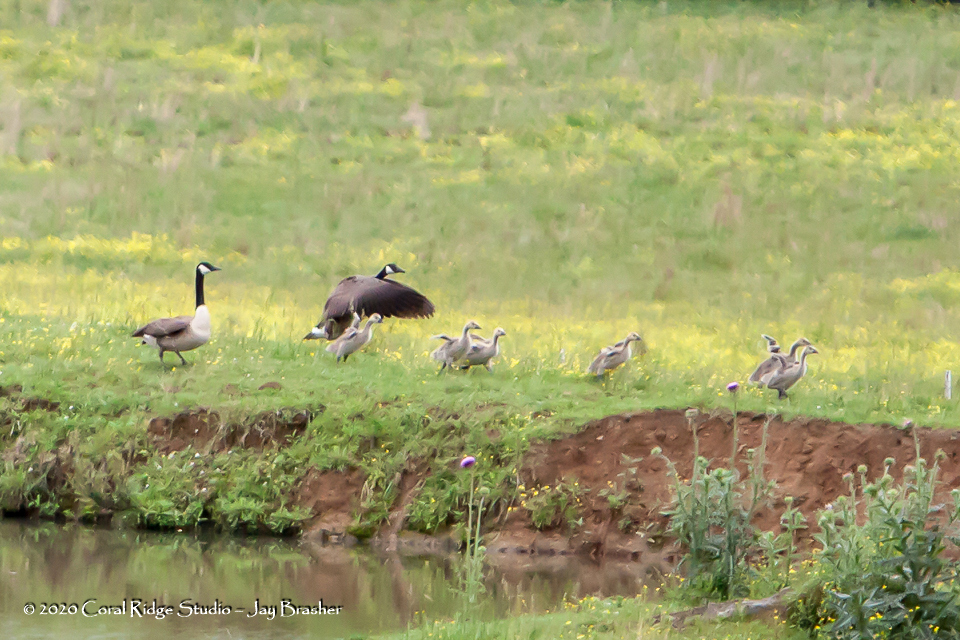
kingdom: Animalia
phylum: Chordata
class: Aves
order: Anseriformes
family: Anatidae
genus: Branta
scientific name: Branta canadensis
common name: Canada goose
